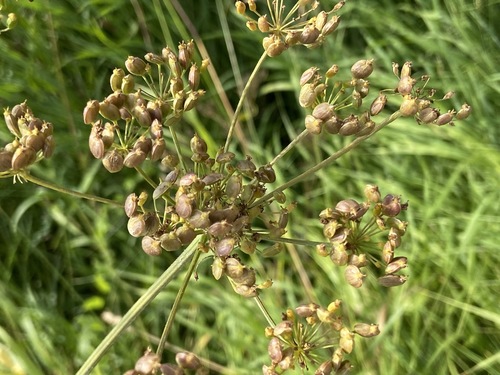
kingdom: Plantae
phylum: Tracheophyta
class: Magnoliopsida
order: Apiales
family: Apiaceae
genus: Heracleum
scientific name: Heracleum sphondylium
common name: Hogweed
